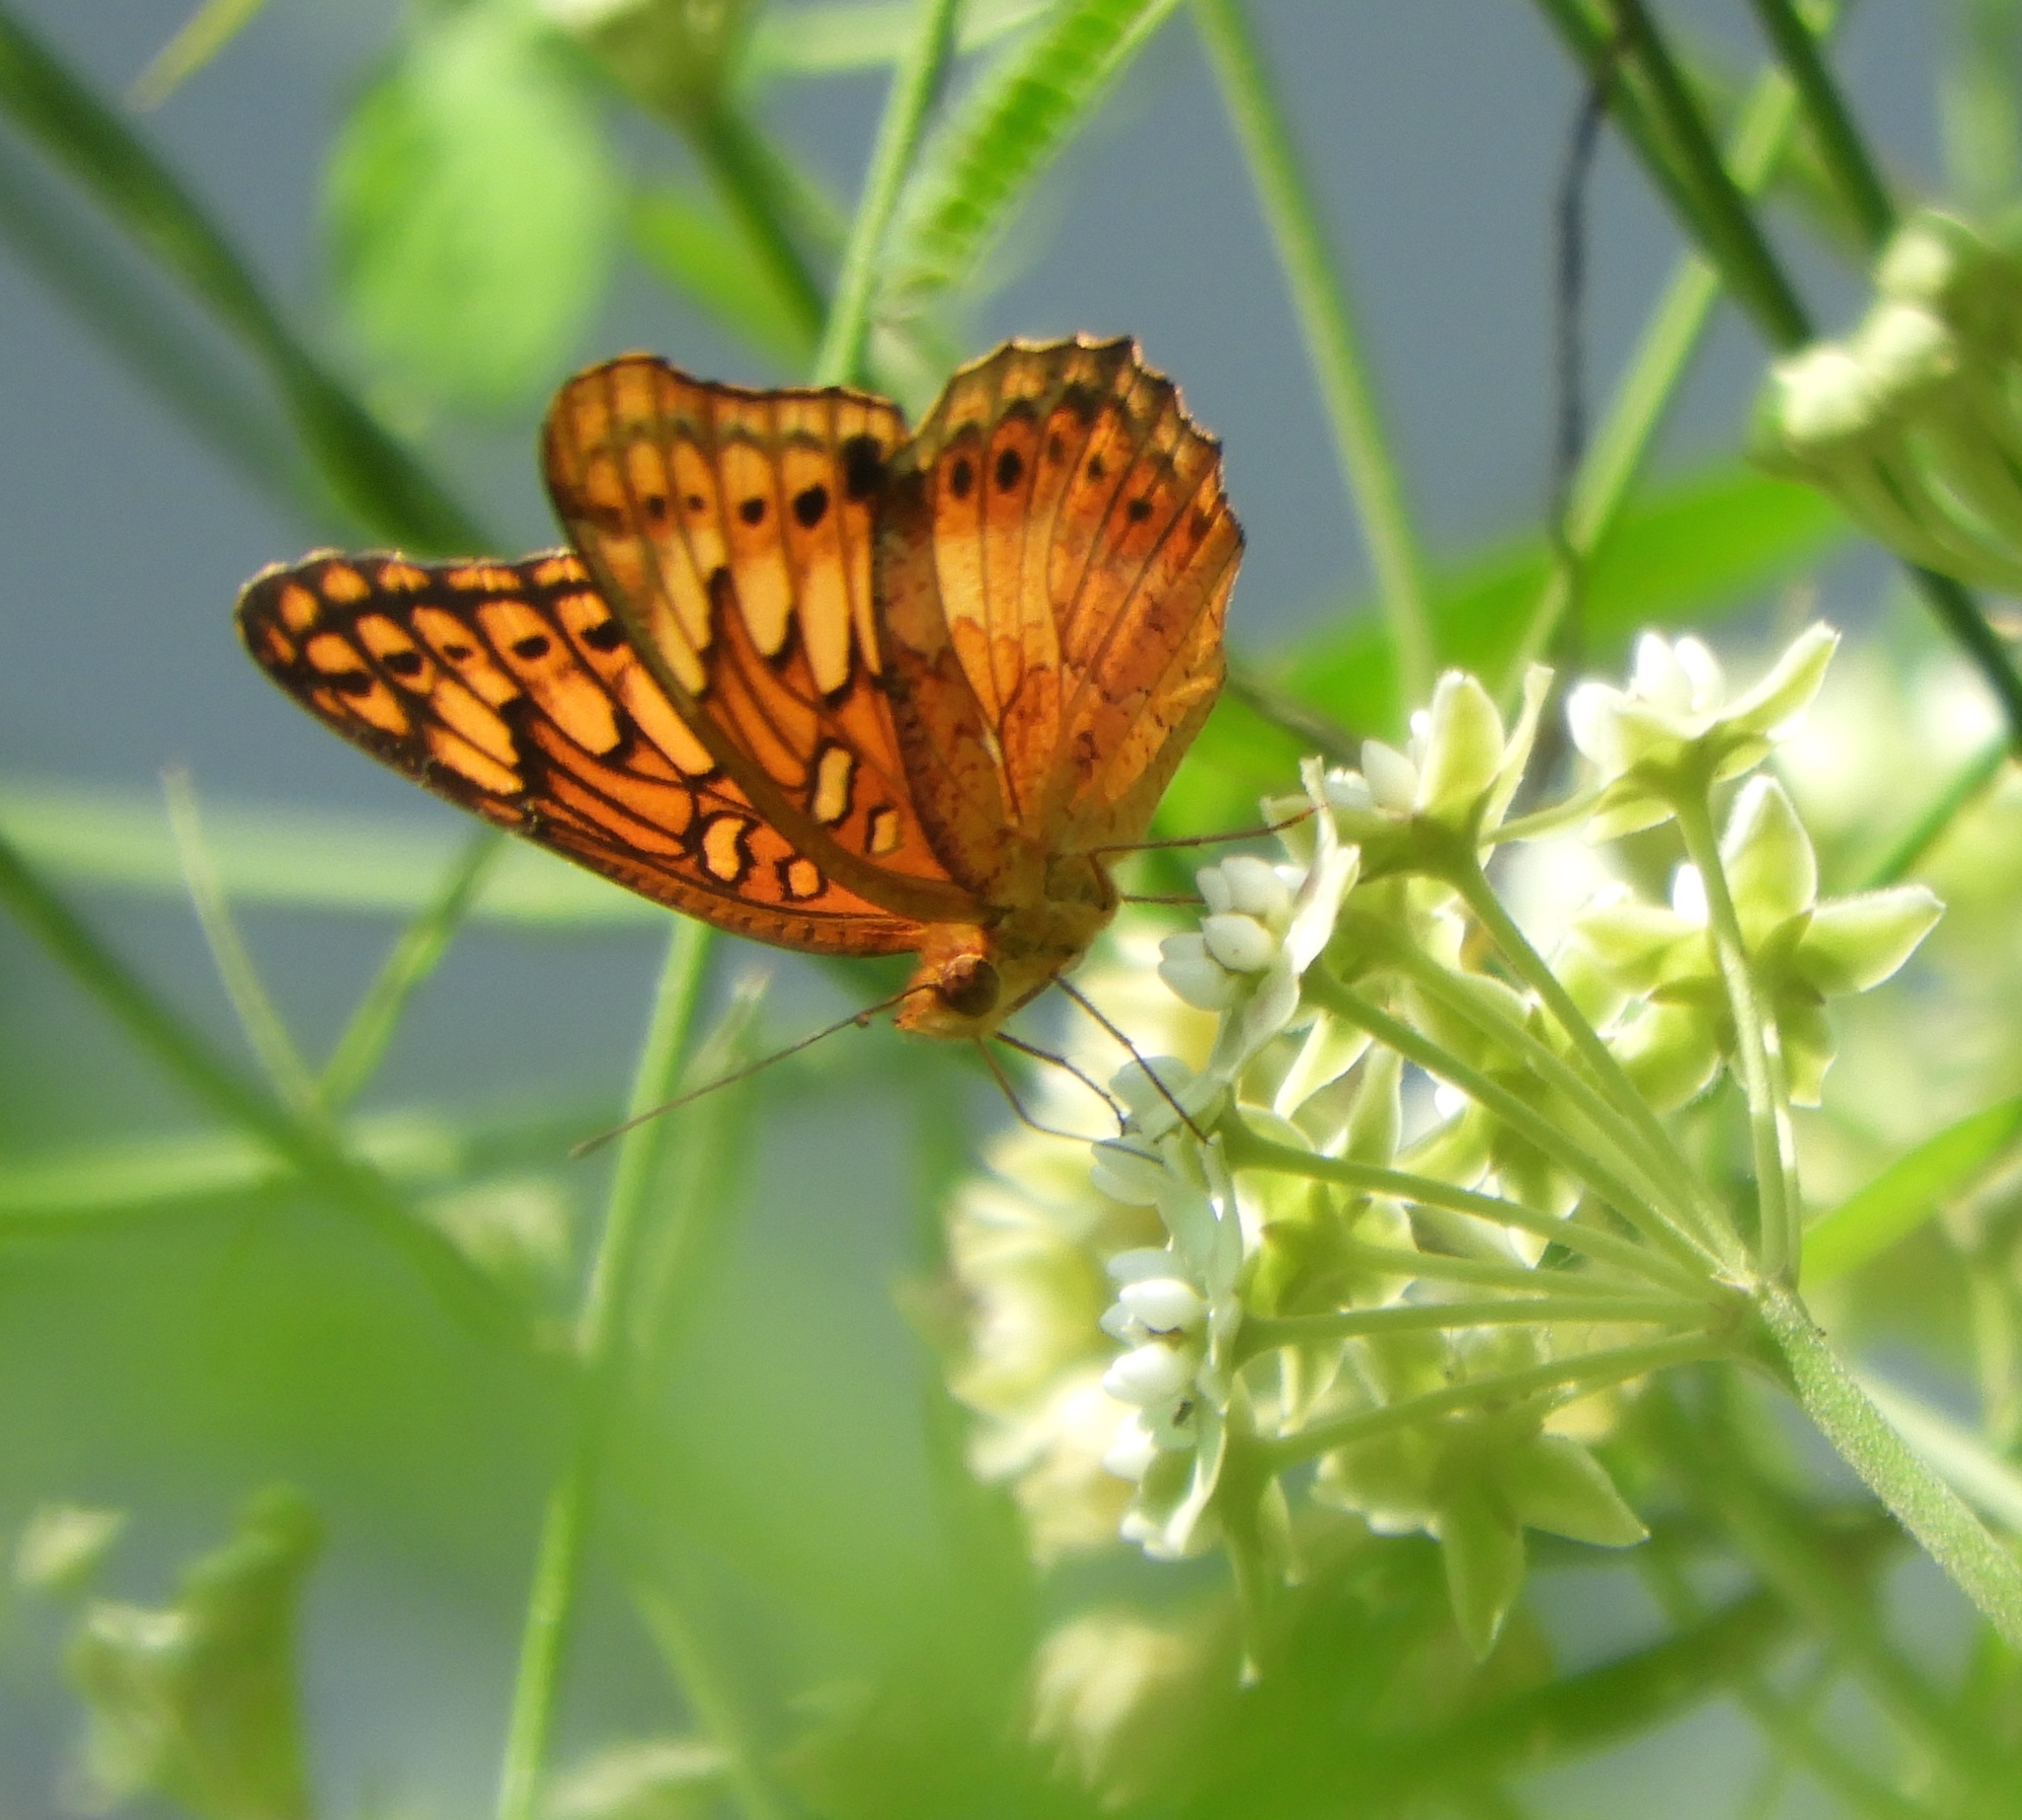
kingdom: Animalia
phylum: Arthropoda
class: Insecta
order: Lepidoptera
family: Nymphalidae
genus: Euptoieta
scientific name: Euptoieta hegesia
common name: Mexican fritillary
